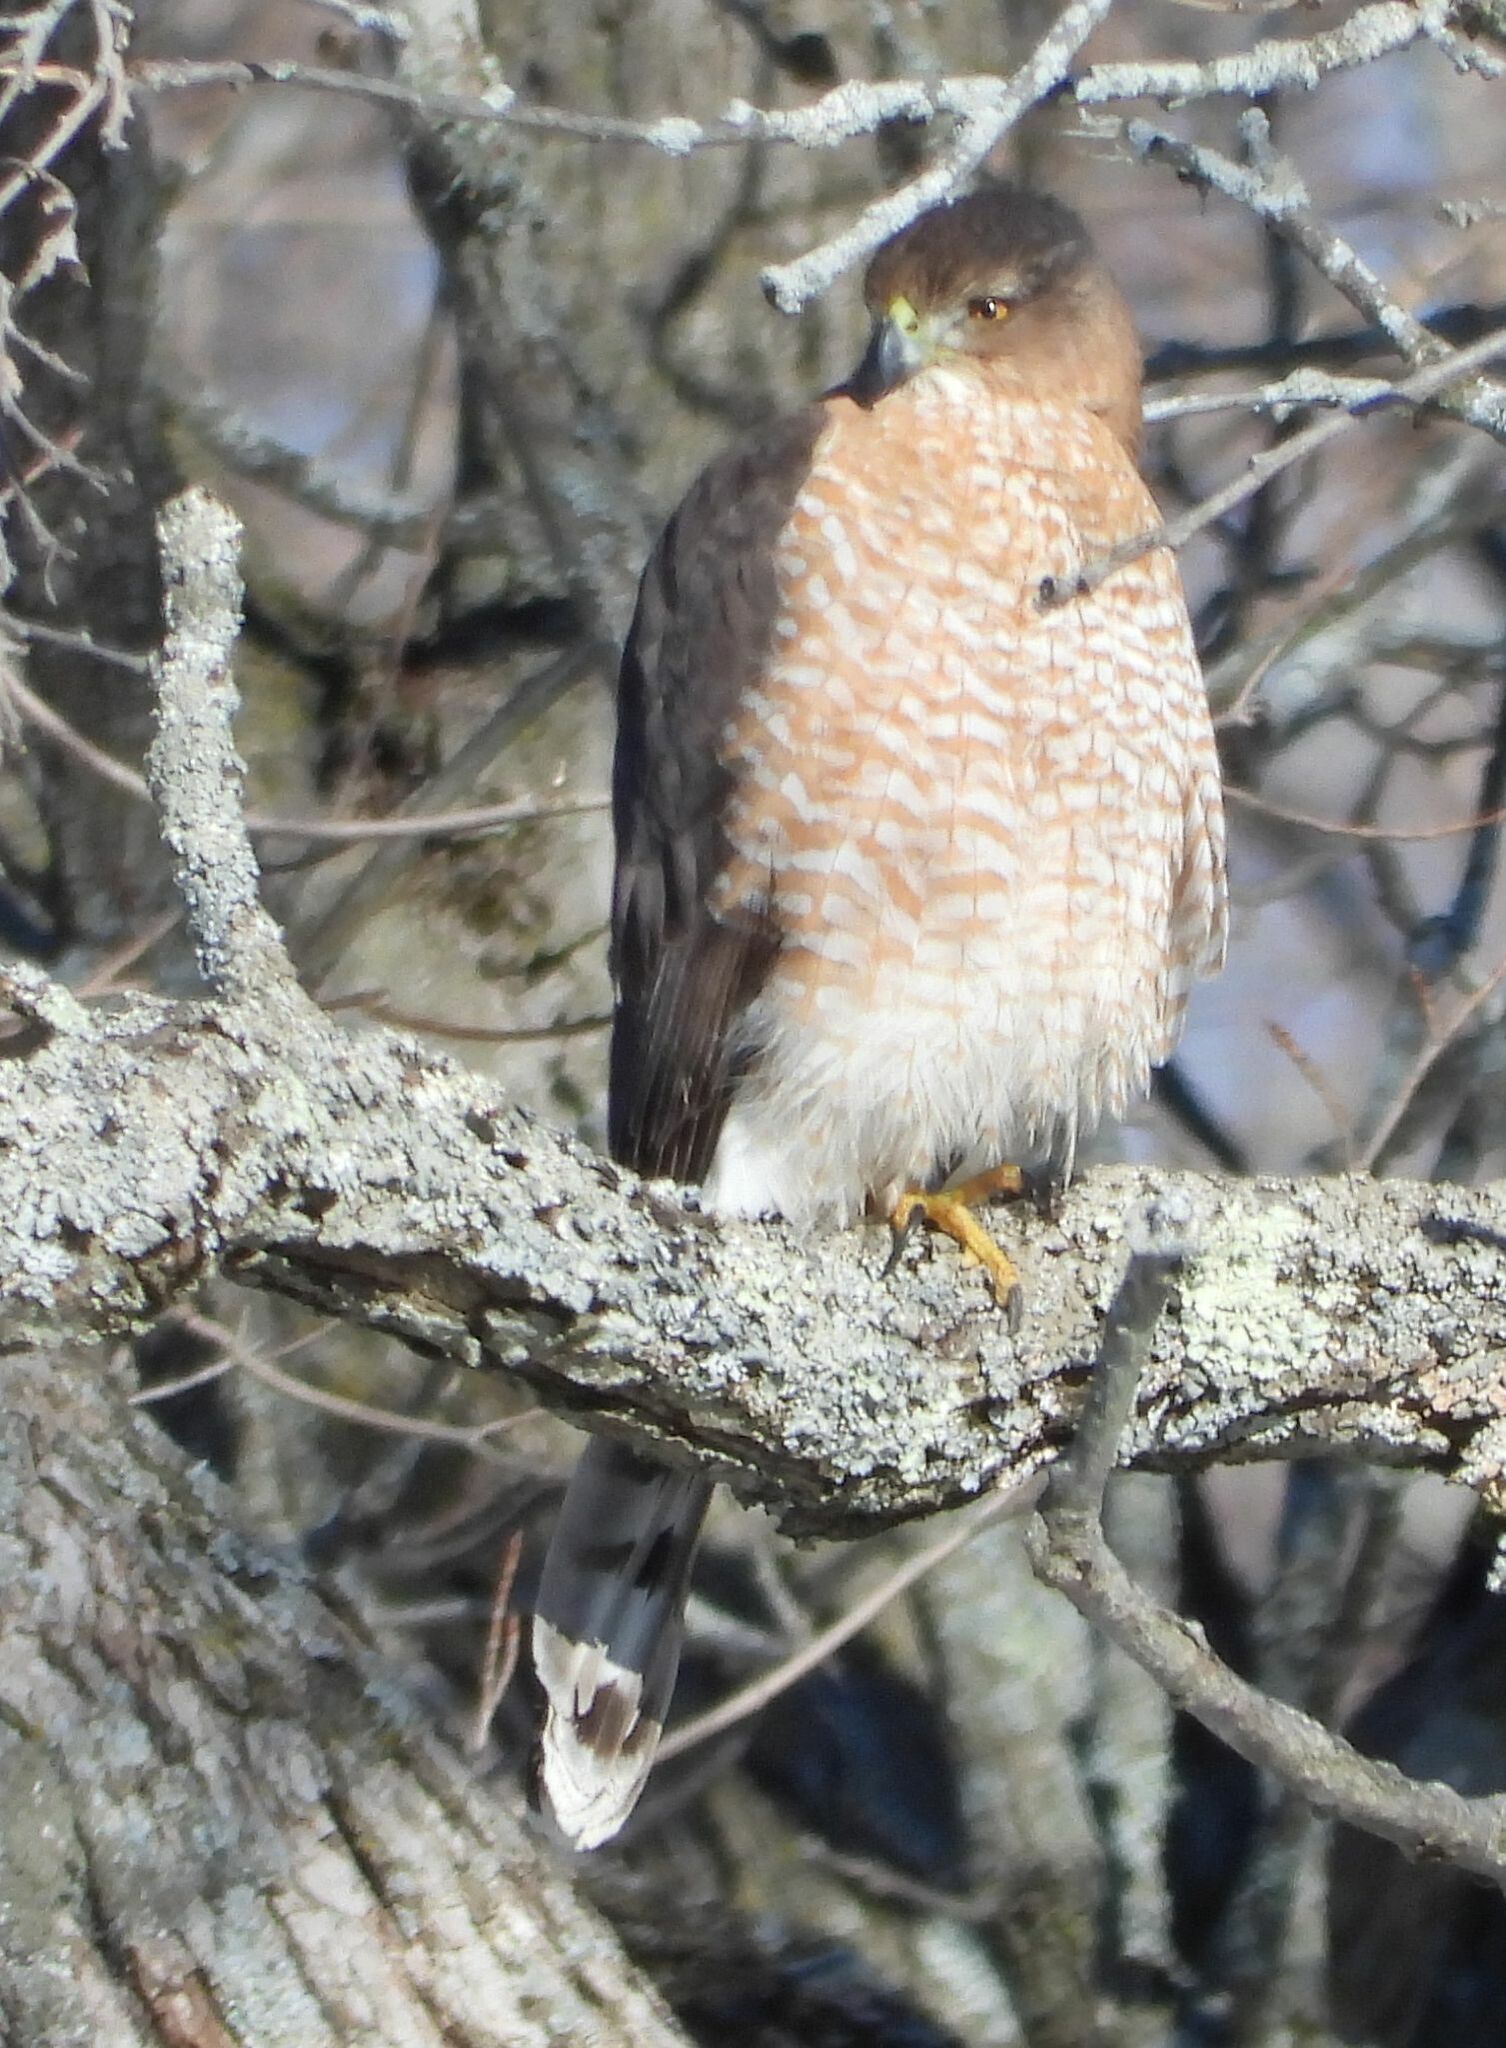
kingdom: Animalia
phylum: Chordata
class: Aves
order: Accipitriformes
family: Accipitridae
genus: Accipiter
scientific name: Accipiter cooperii
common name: Cooper's hawk
